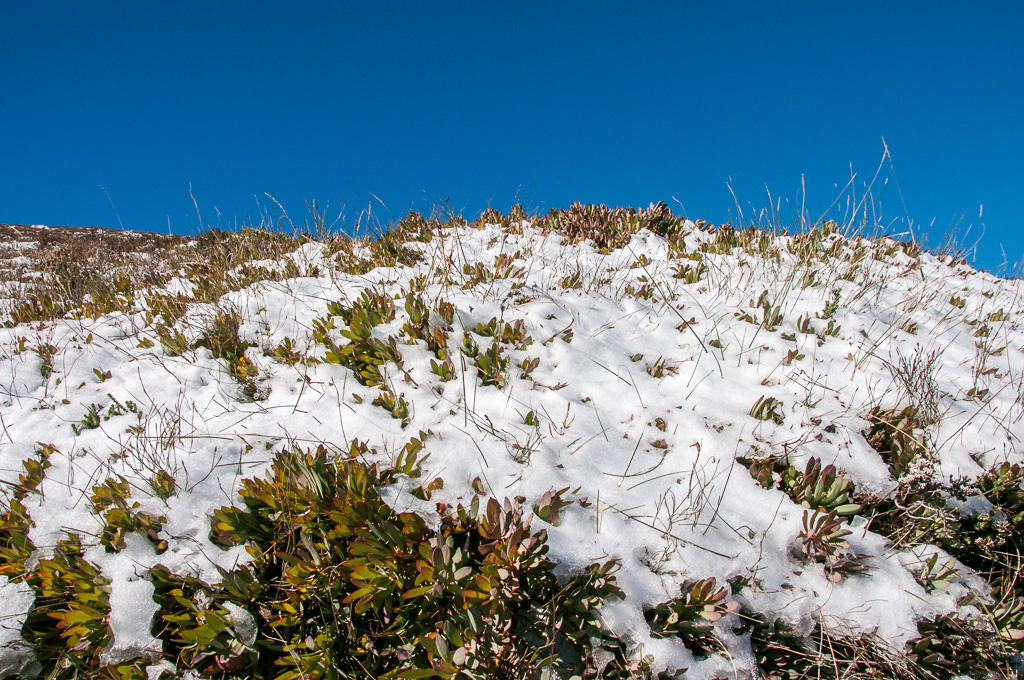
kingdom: Plantae
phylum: Tracheophyta
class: Magnoliopsida
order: Proteales
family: Proteaceae
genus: Protea
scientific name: Protea effusa
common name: Scarlet sugarbush
